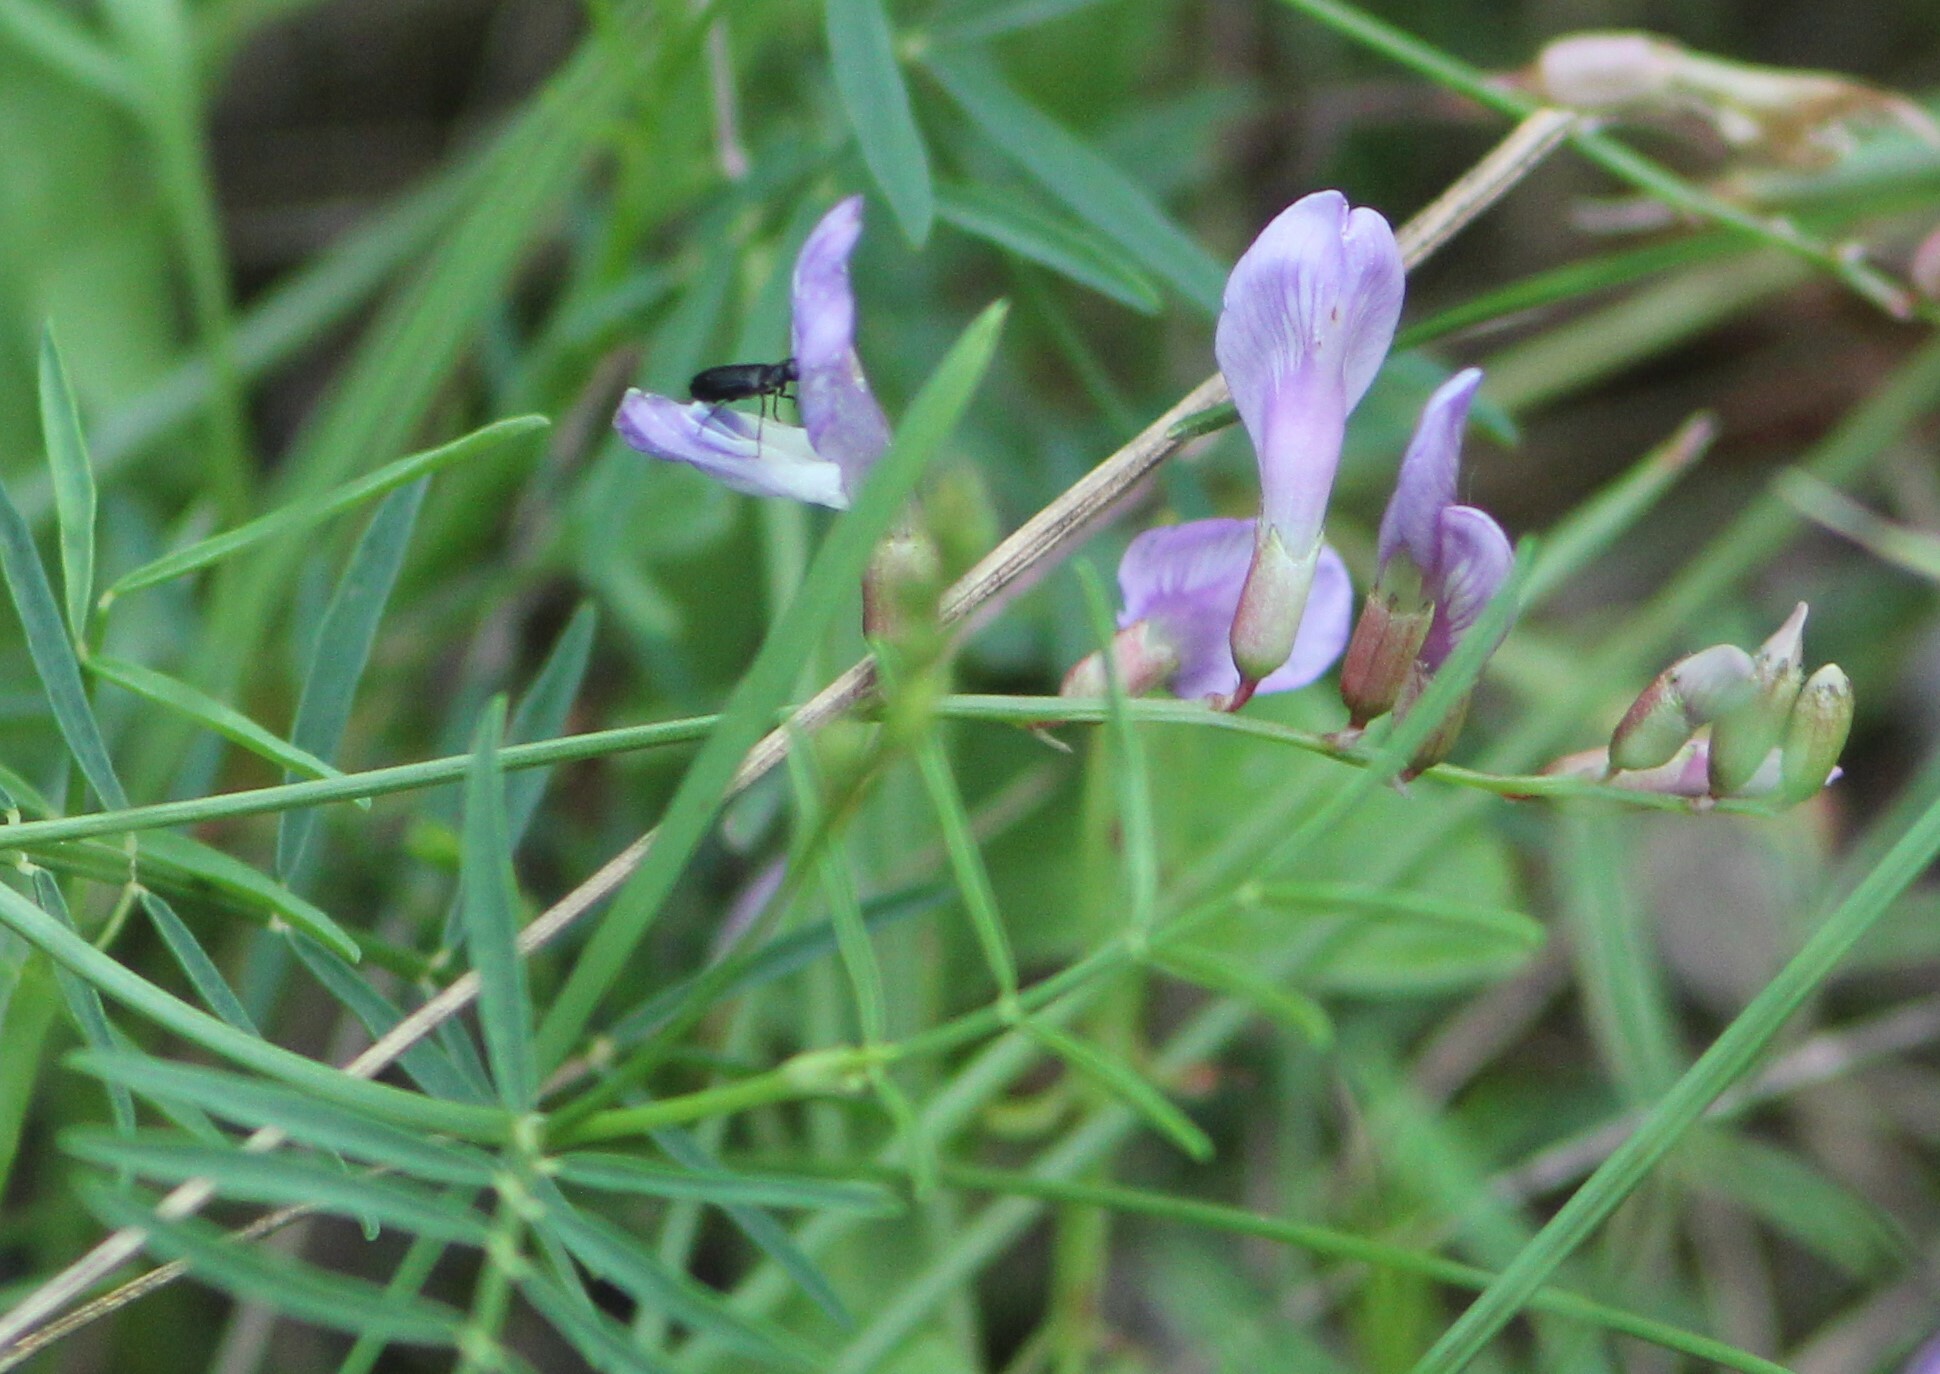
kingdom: Plantae
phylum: Tracheophyta
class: Magnoliopsida
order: Fabales
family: Fabaceae
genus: Astragalus
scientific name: Astragalus arenarius
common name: Arenarious milk-vetch
